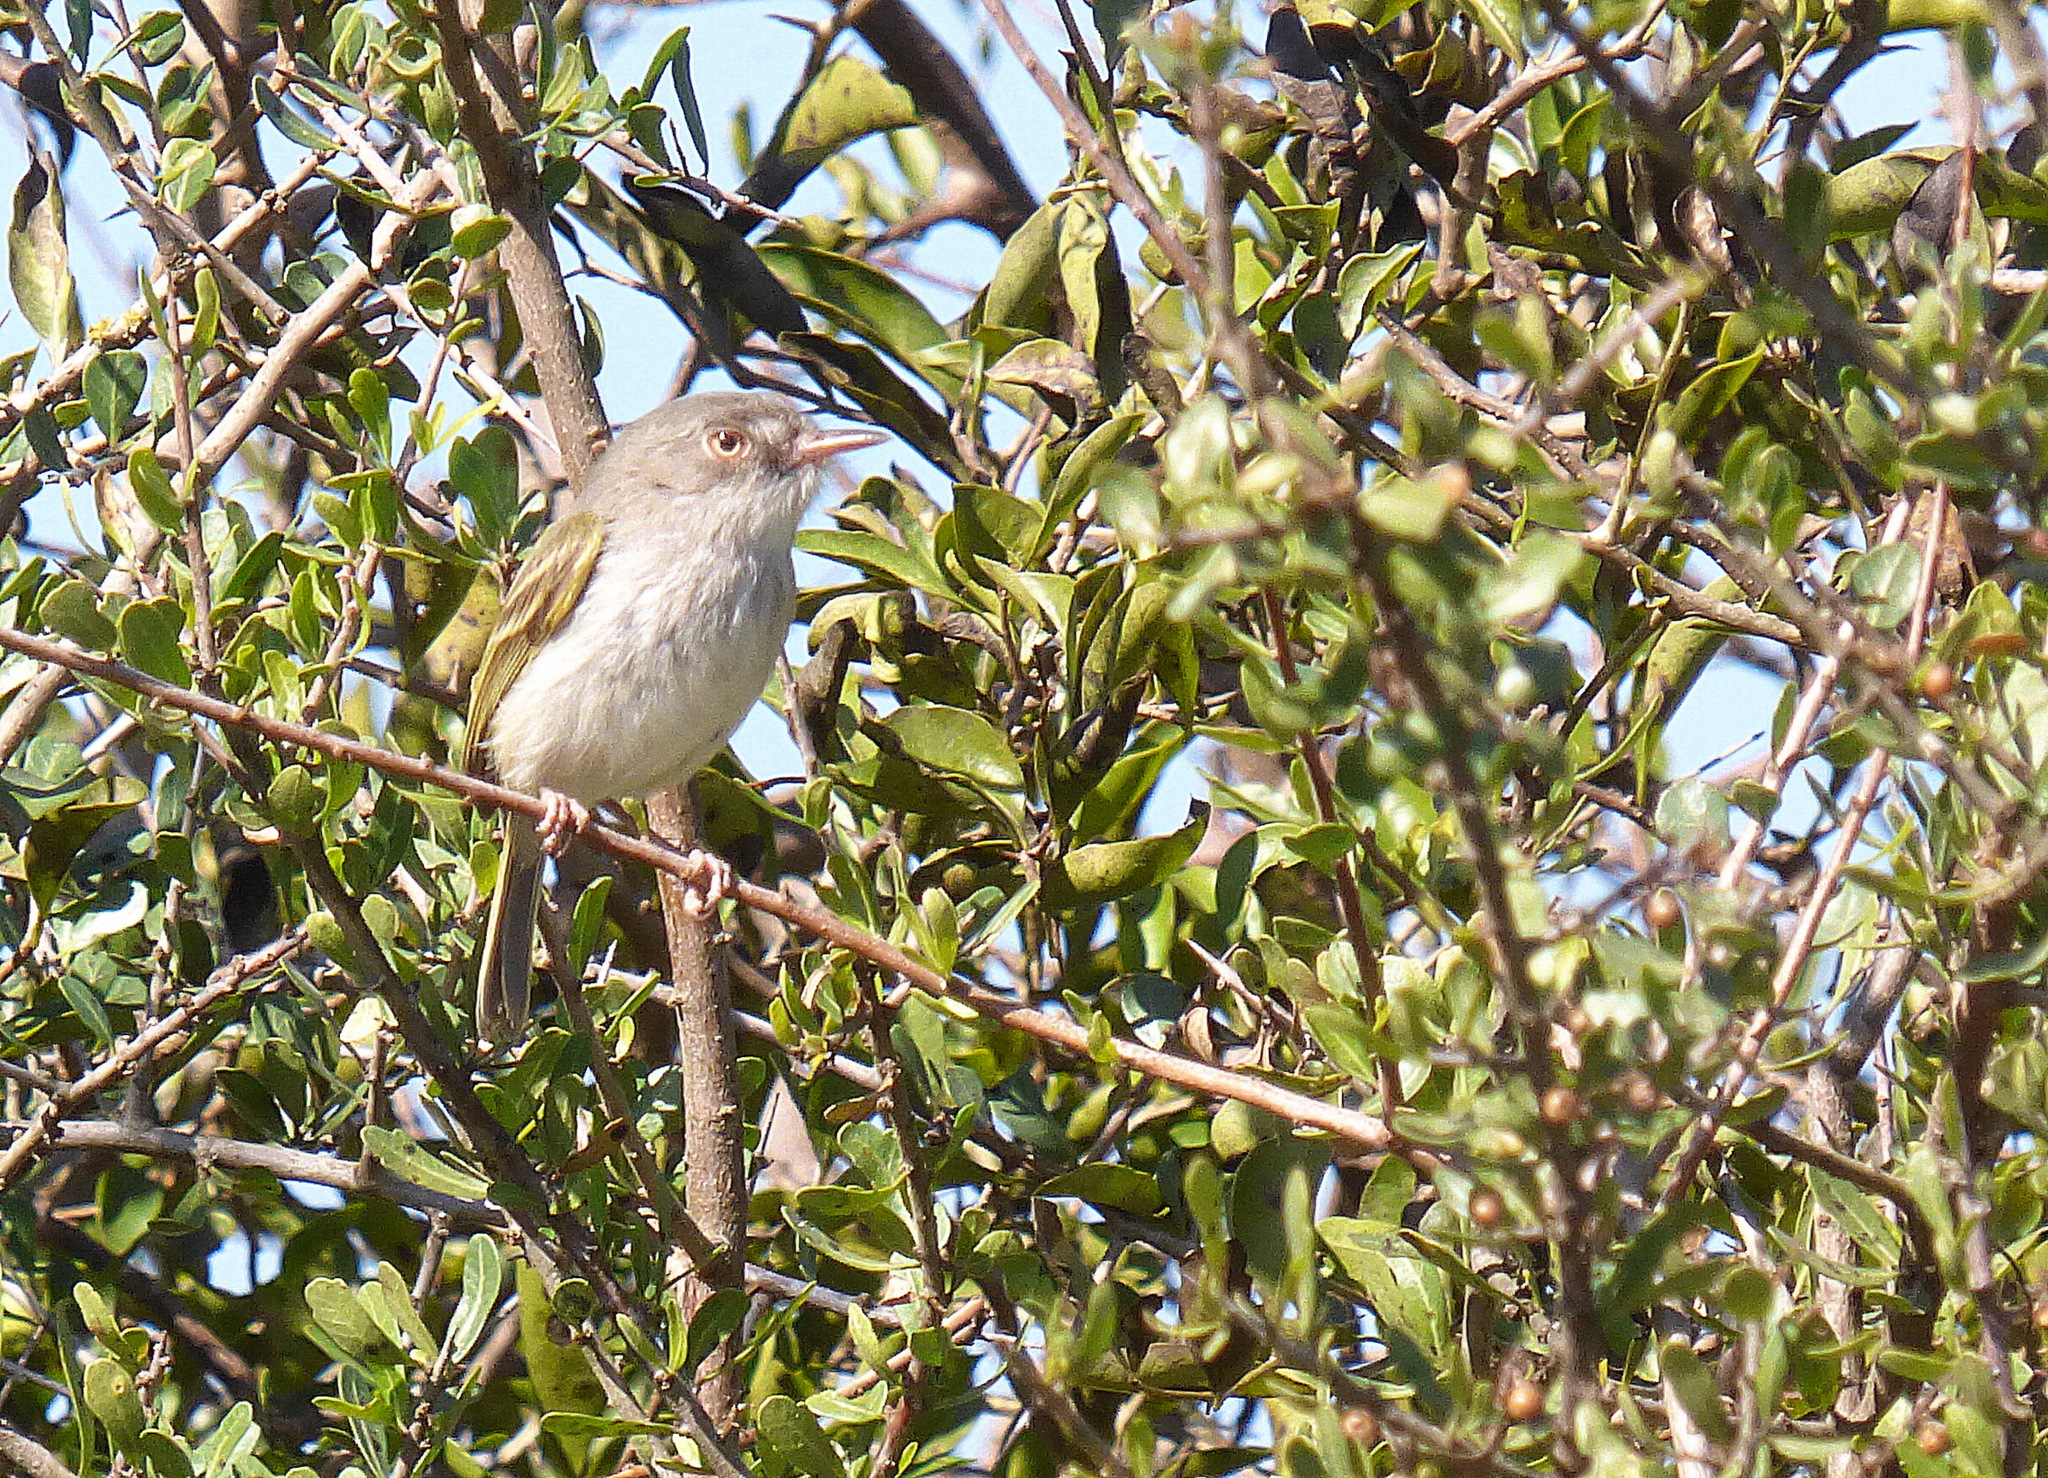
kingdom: Animalia
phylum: Chordata
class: Aves
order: Passeriformes
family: Tyrannidae
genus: Hemitriccus
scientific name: Hemitriccus margaritaceiventer
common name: Pearly-vented tody-tyrant
